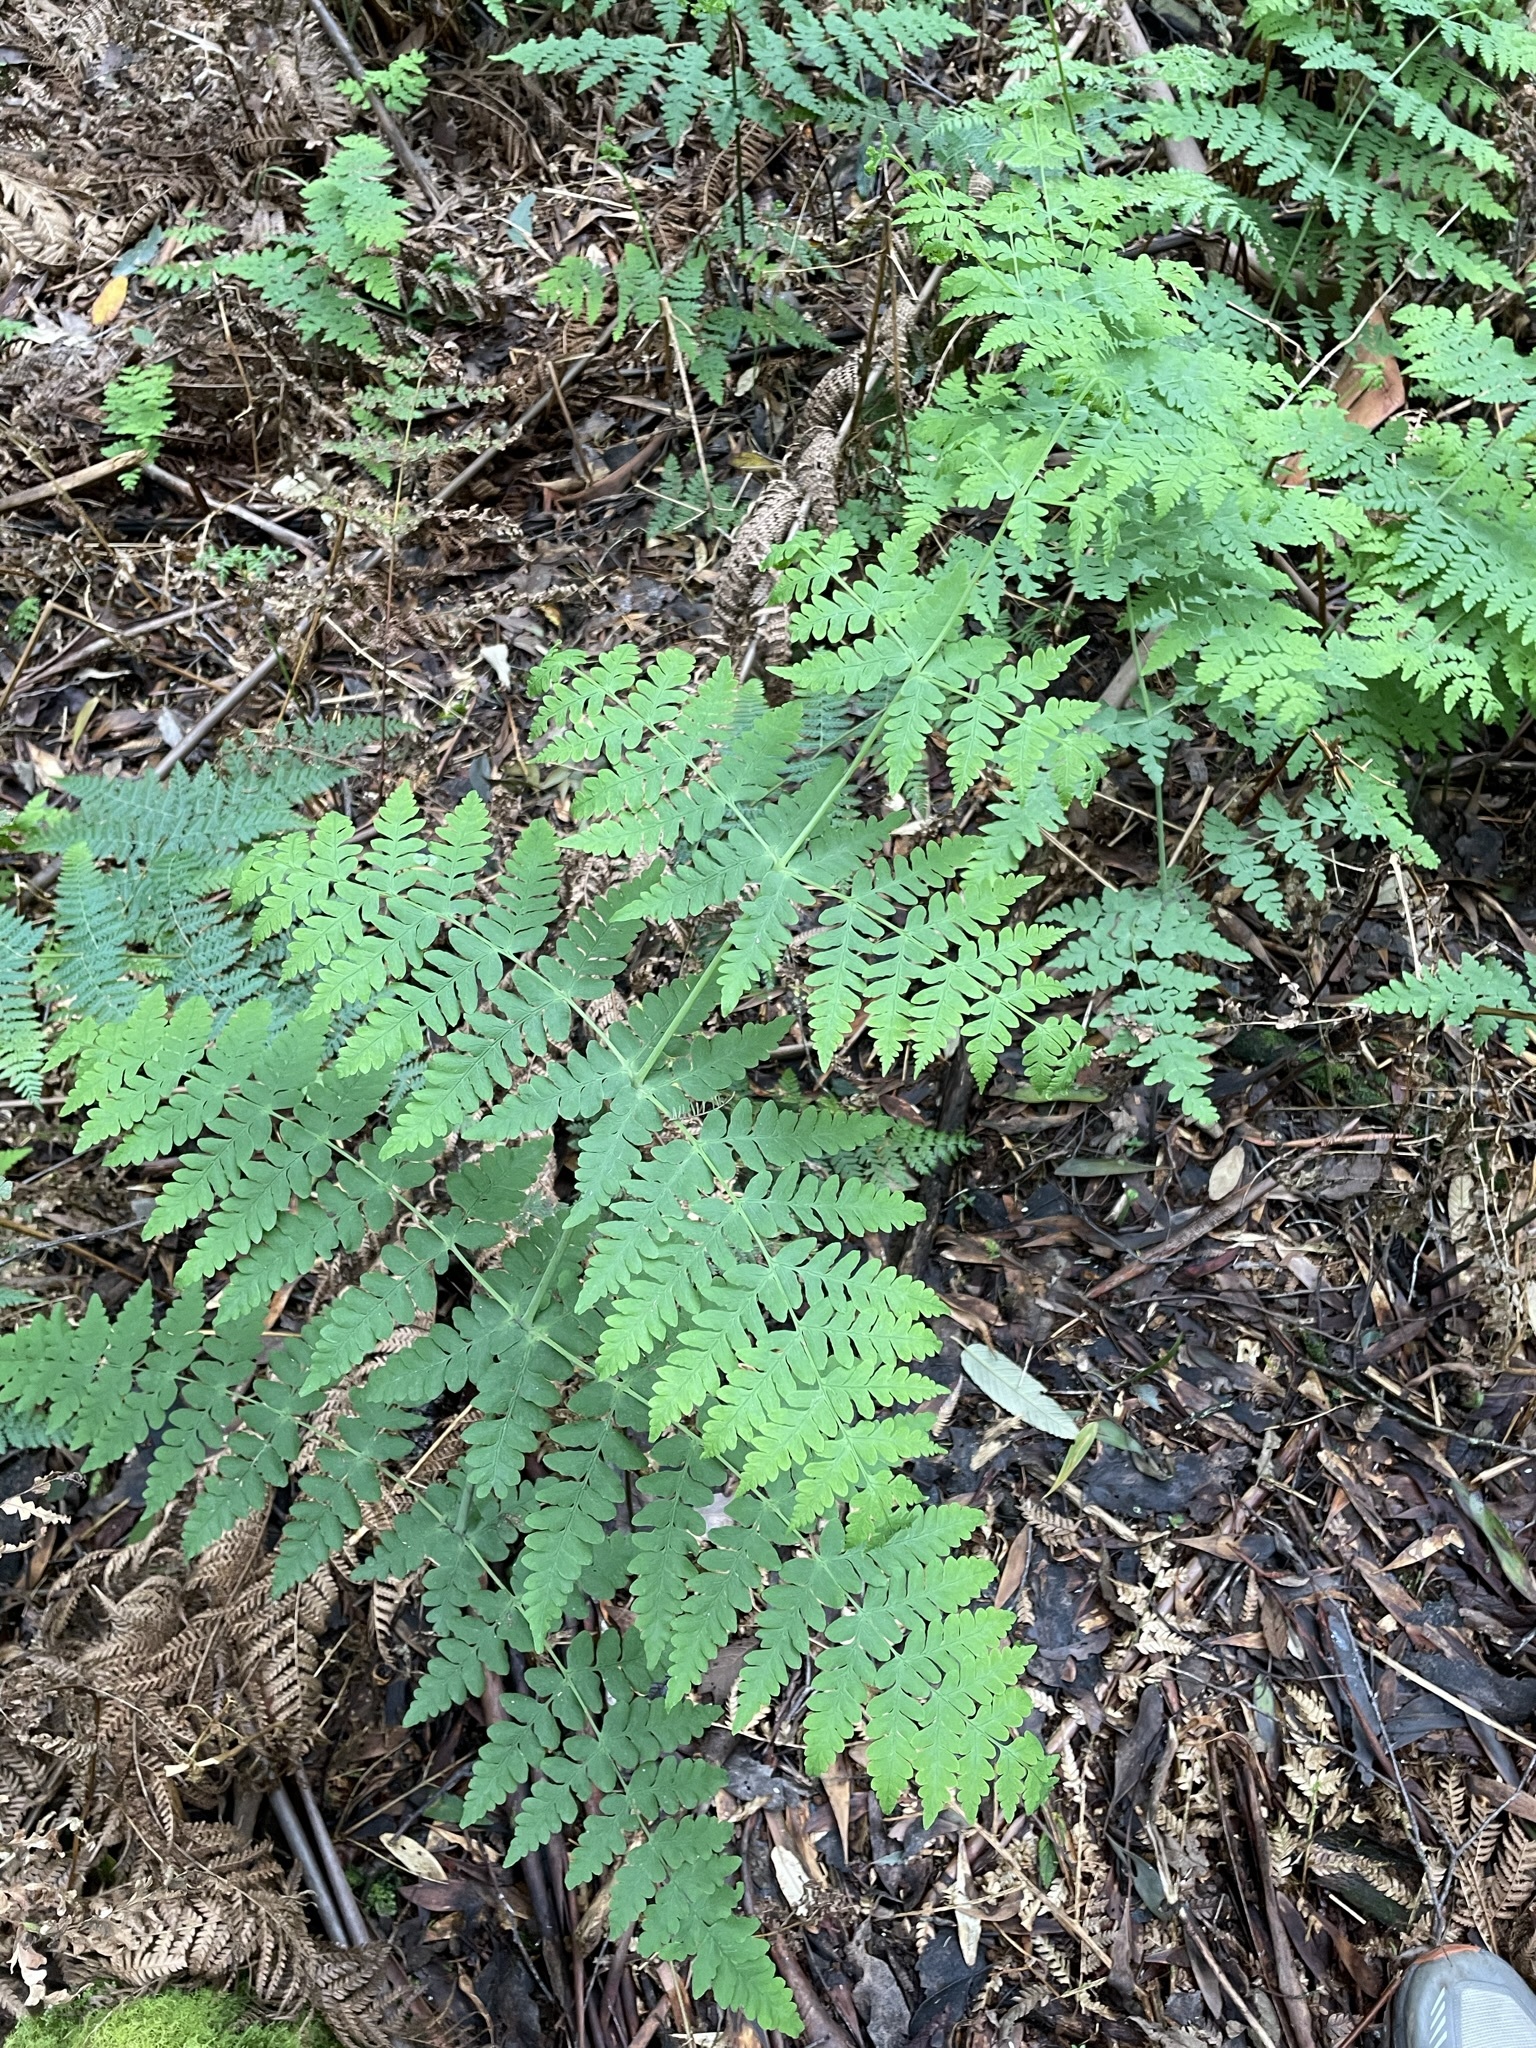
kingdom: Plantae
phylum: Tracheophyta
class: Polypodiopsida
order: Polypodiales
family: Dennstaedtiaceae
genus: Histiopteris
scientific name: Histiopteris incisa
